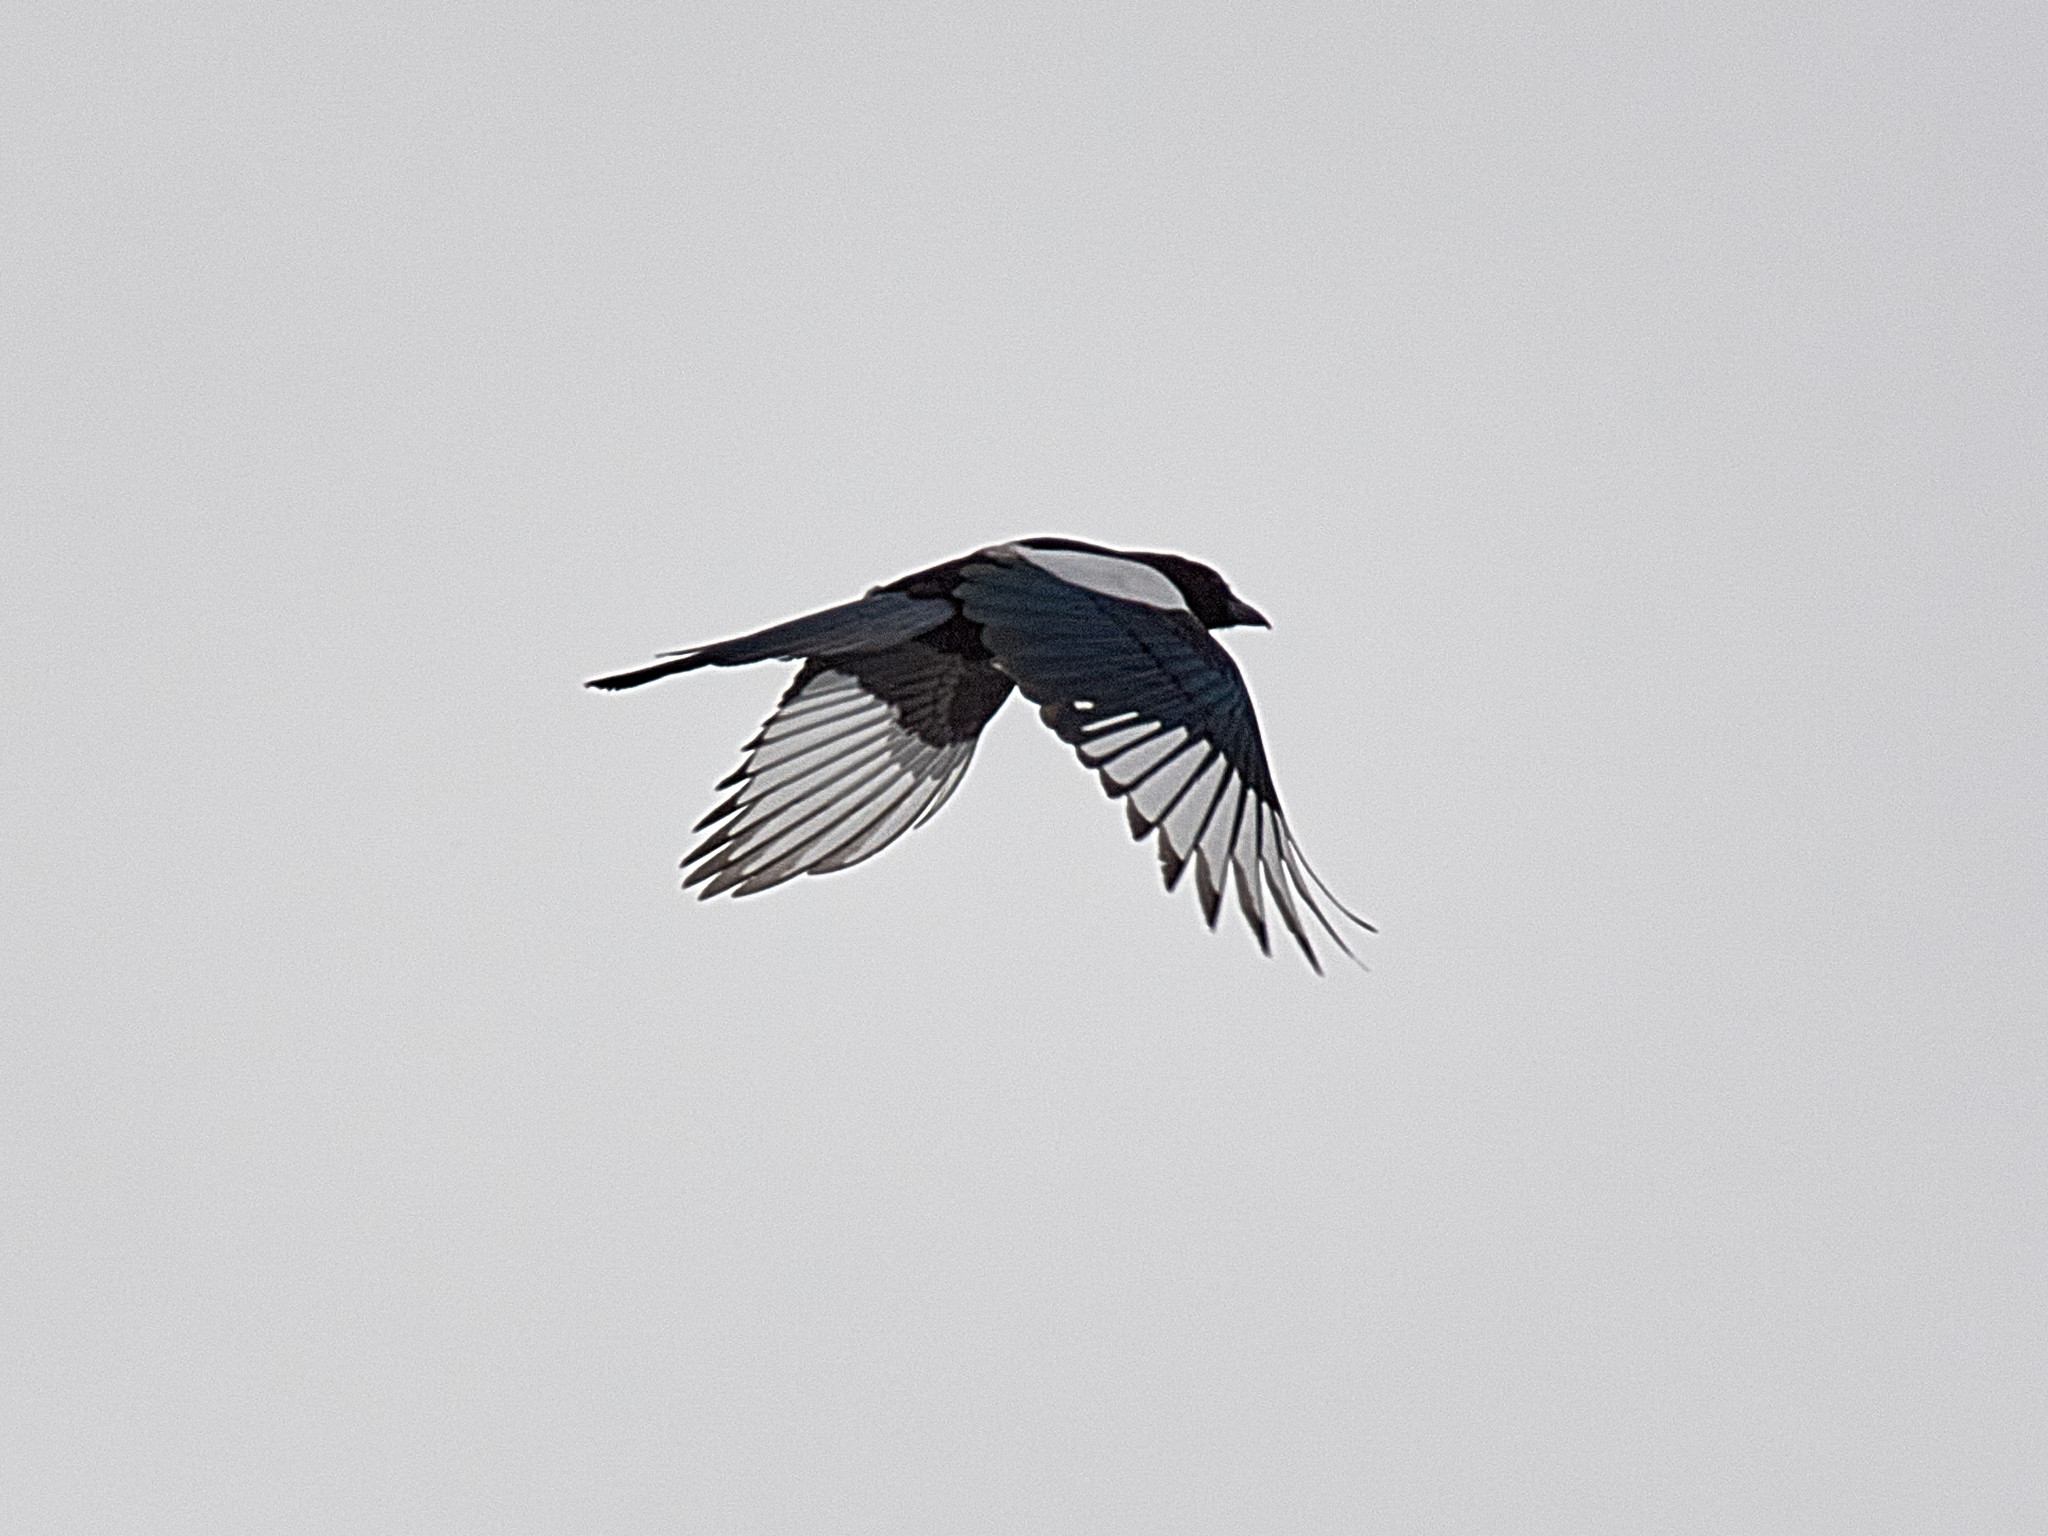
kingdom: Animalia
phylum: Chordata
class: Aves
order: Passeriformes
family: Corvidae
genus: Pica
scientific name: Pica pica
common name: Eurasian magpie
